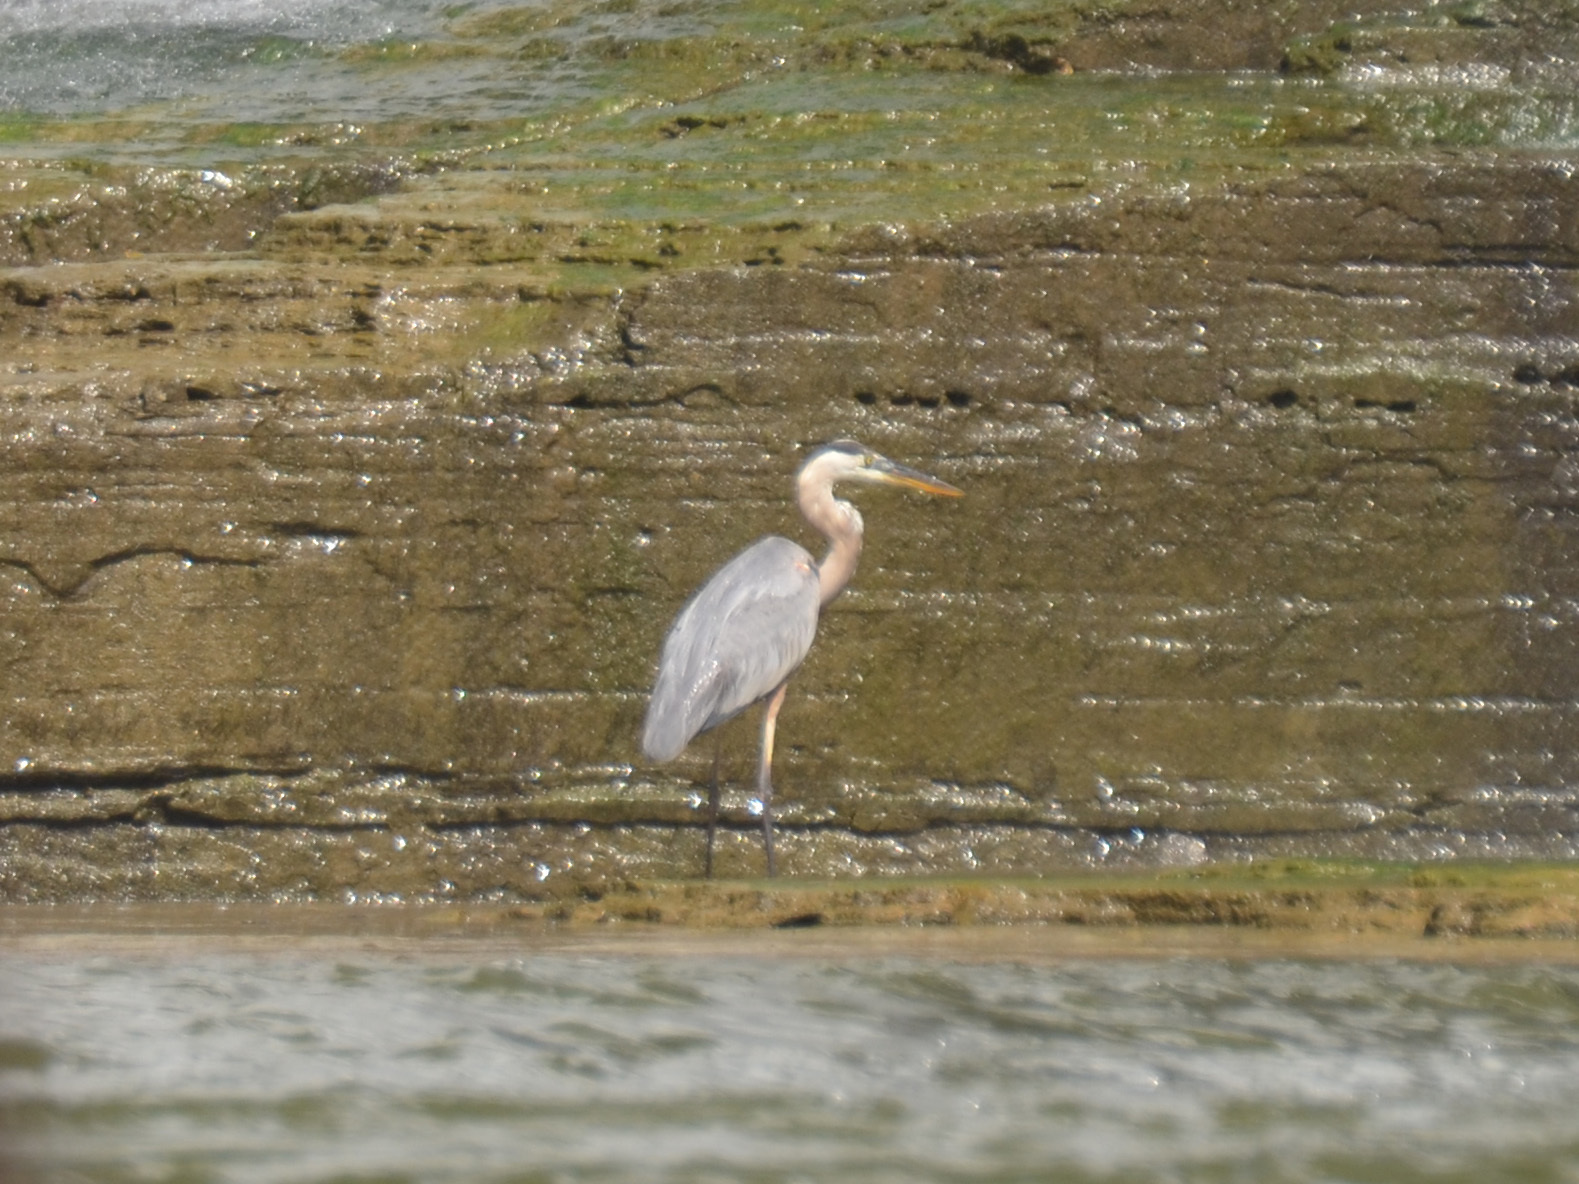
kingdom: Animalia
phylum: Chordata
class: Aves
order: Pelecaniformes
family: Ardeidae
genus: Ardea
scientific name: Ardea herodias
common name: Great blue heron
